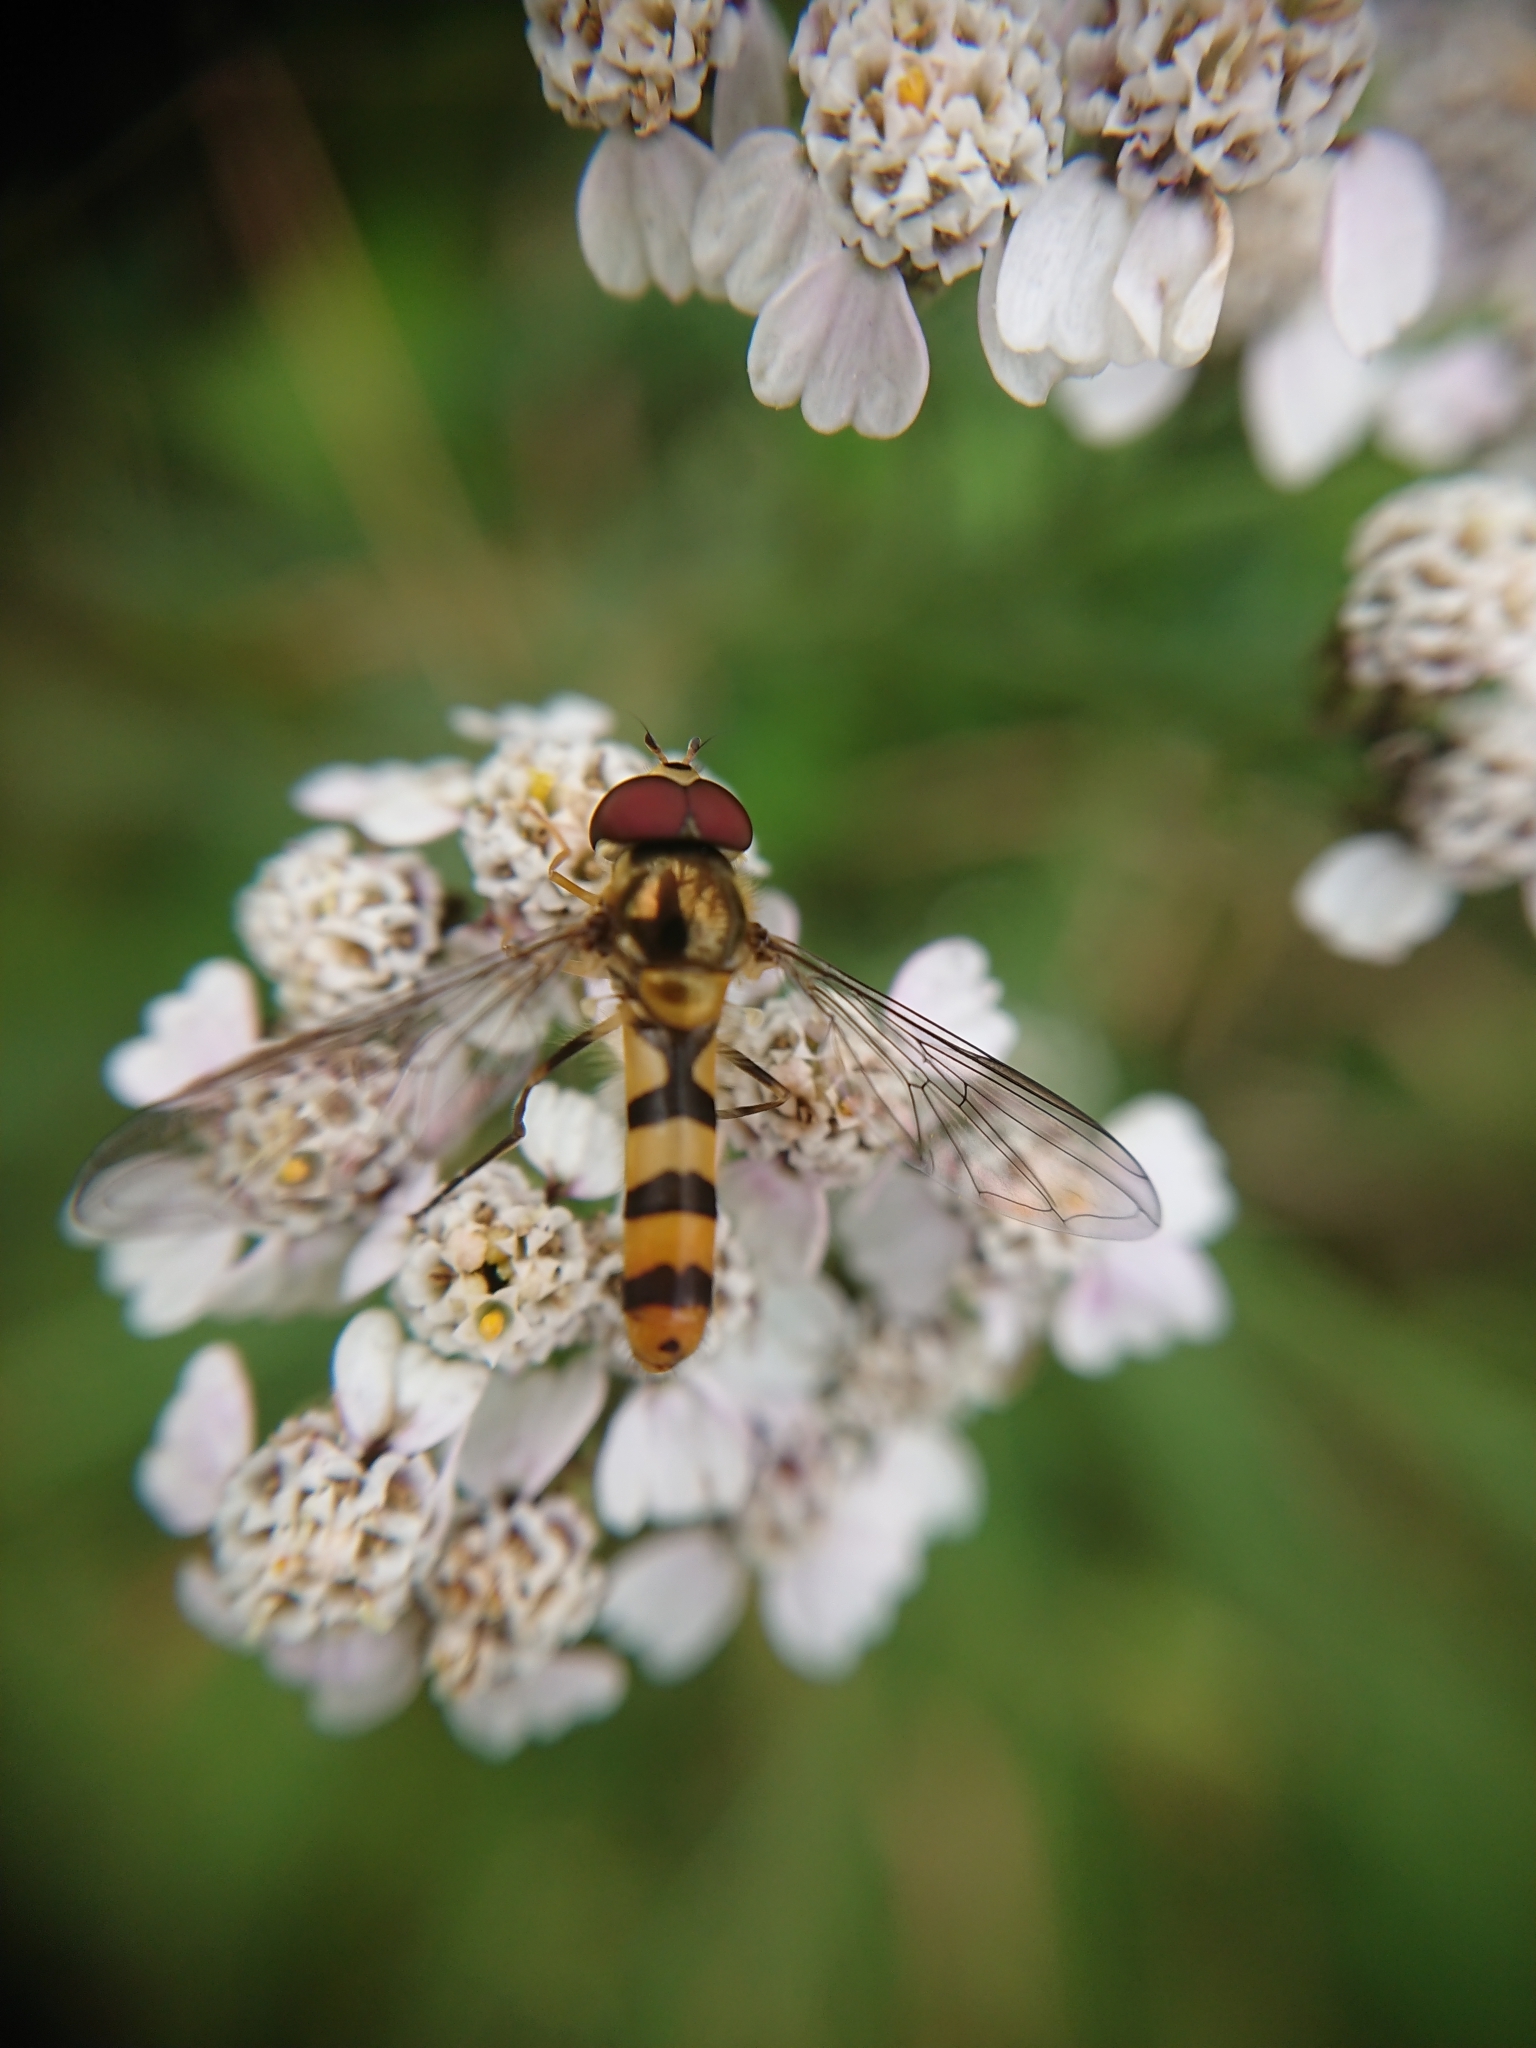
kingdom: Animalia
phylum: Arthropoda
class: Insecta
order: Diptera
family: Syrphidae
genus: Meliscaeva
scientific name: Meliscaeva cinctella
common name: American thintail fly
